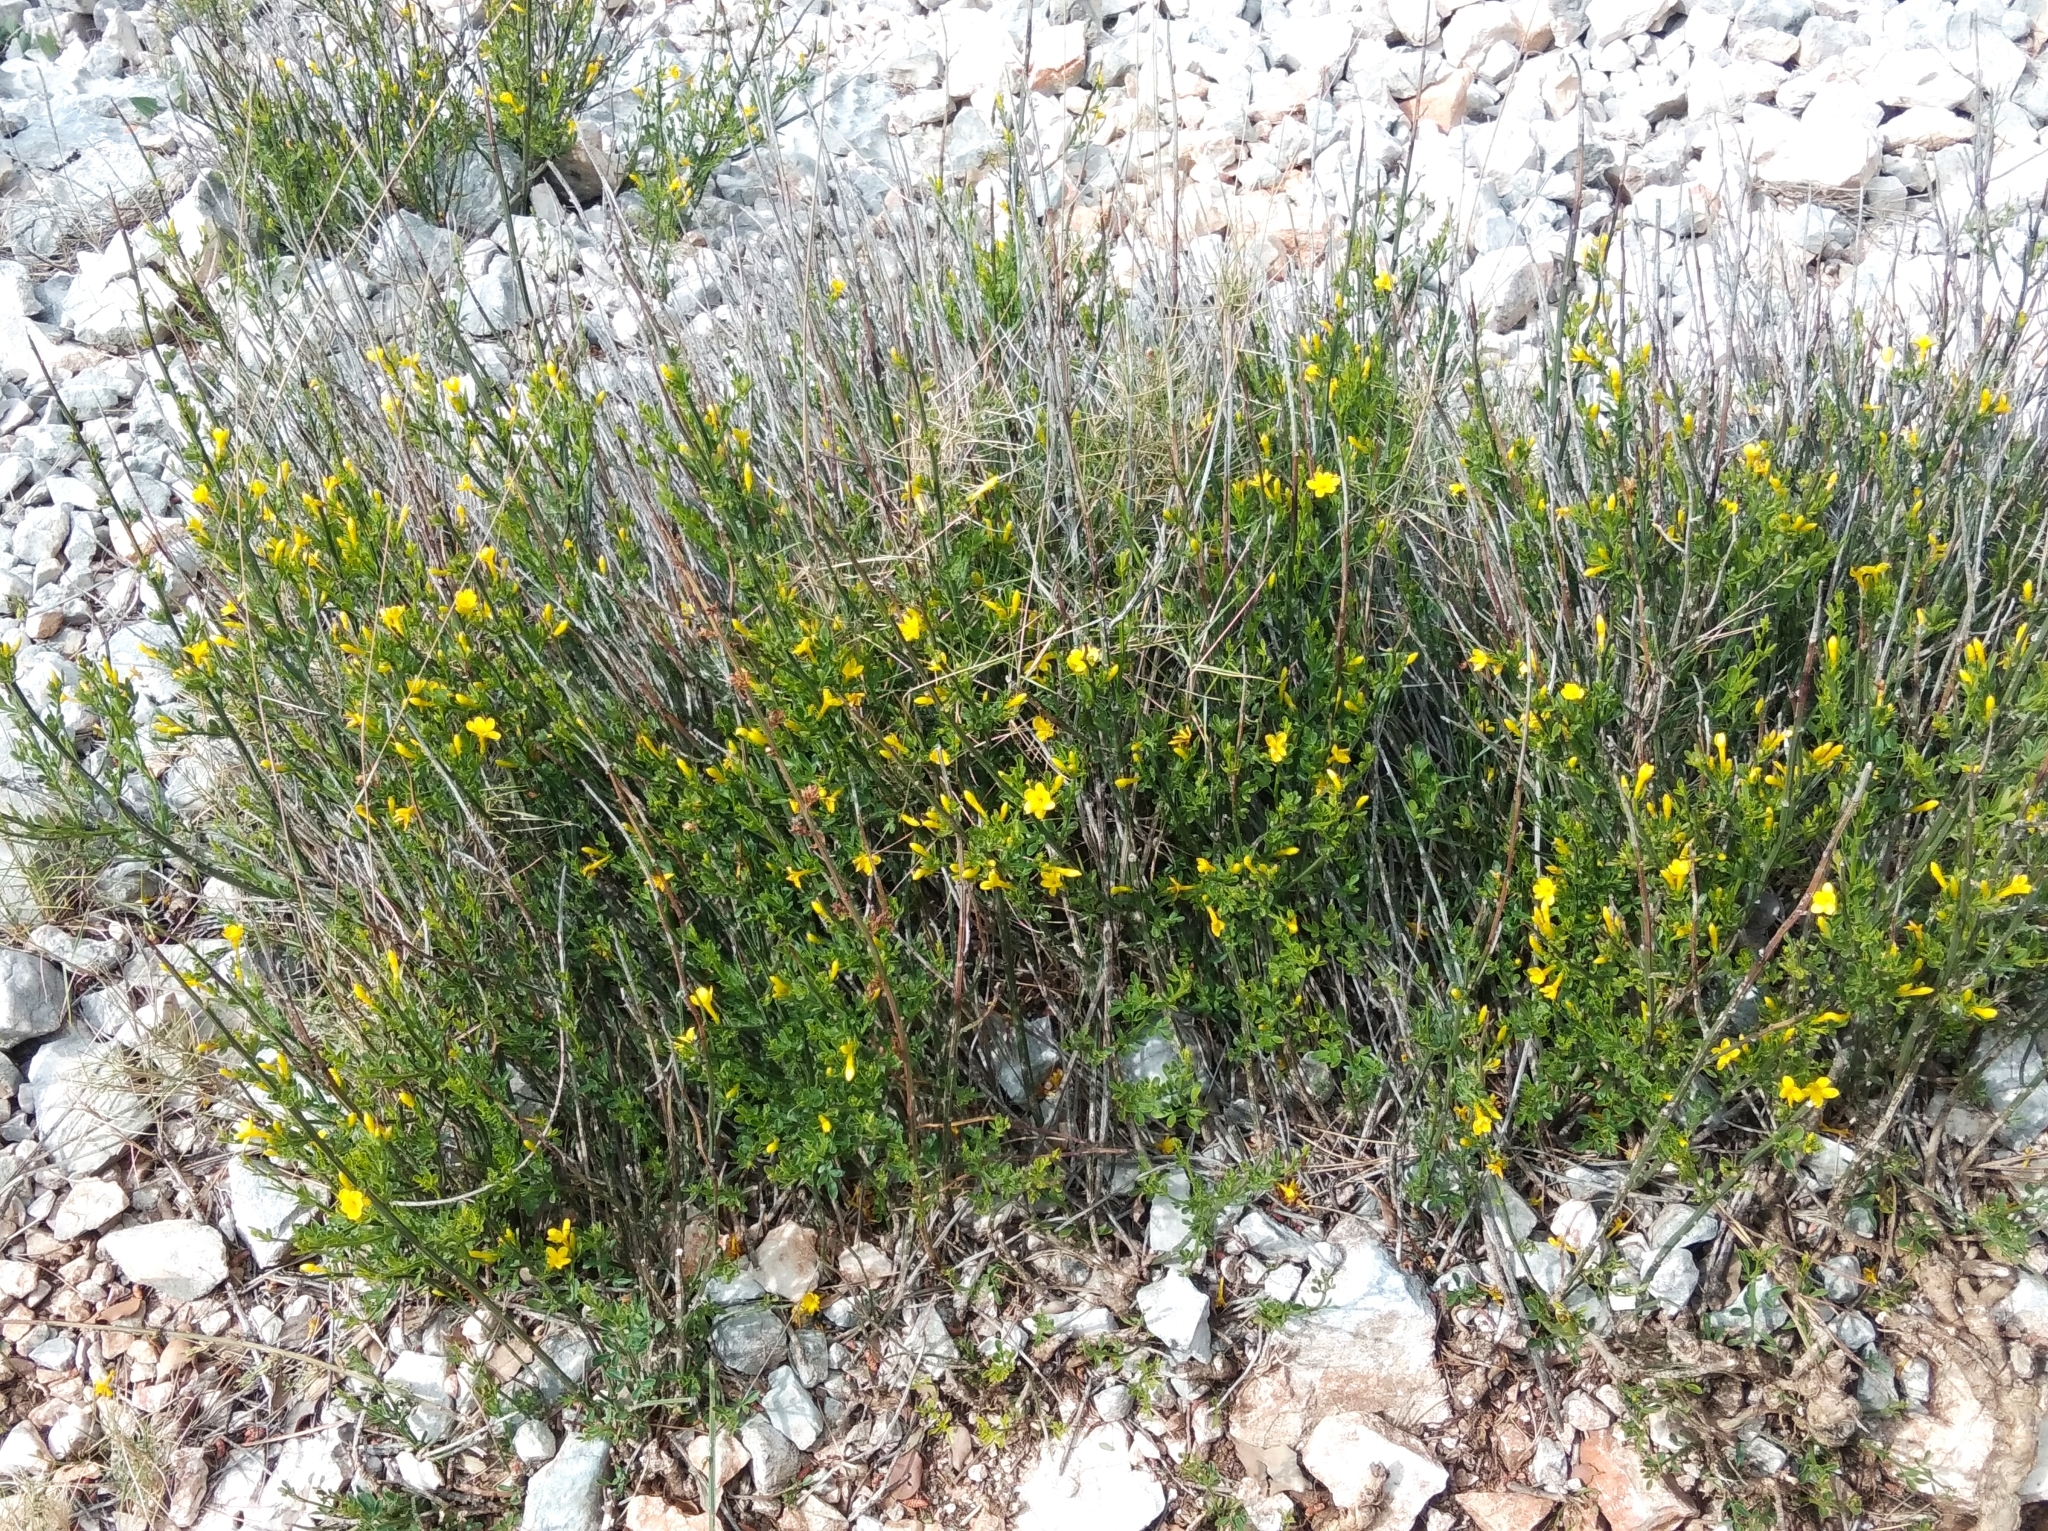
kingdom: Plantae
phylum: Tracheophyta
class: Magnoliopsida
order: Lamiales
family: Oleaceae
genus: Chrysojasminum
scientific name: Chrysojasminum fruticans
